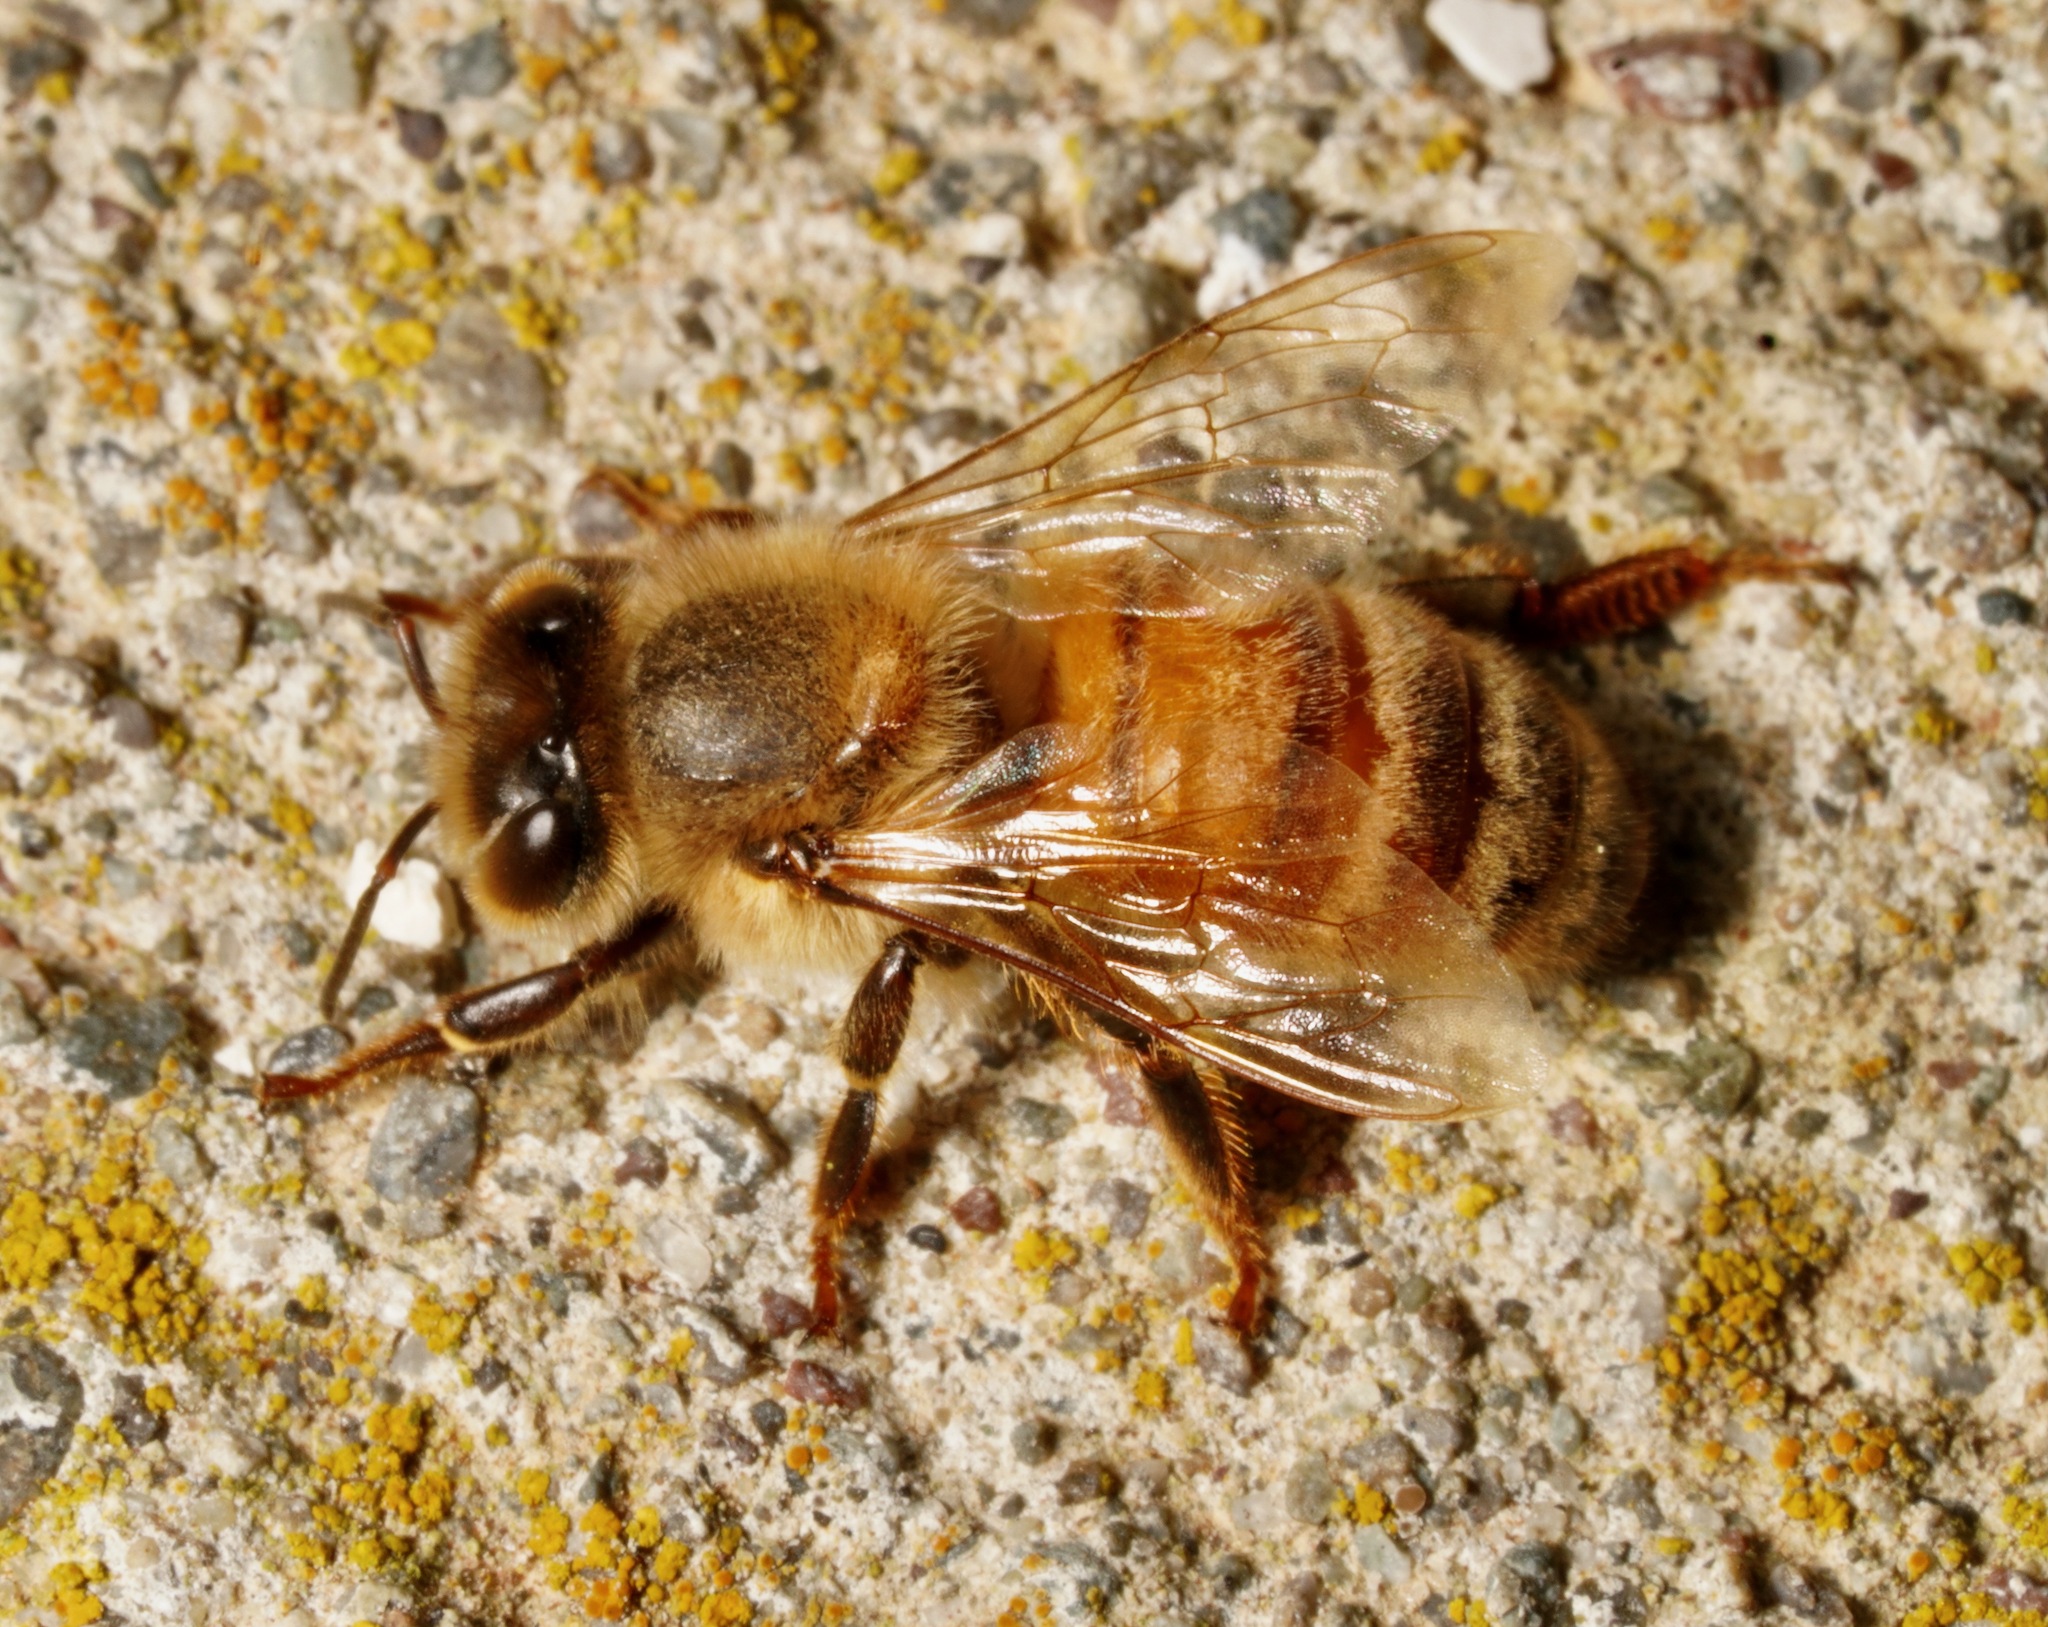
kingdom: Animalia
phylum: Arthropoda
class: Insecta
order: Hymenoptera
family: Apidae
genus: Apis
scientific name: Apis mellifera
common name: Honey bee
